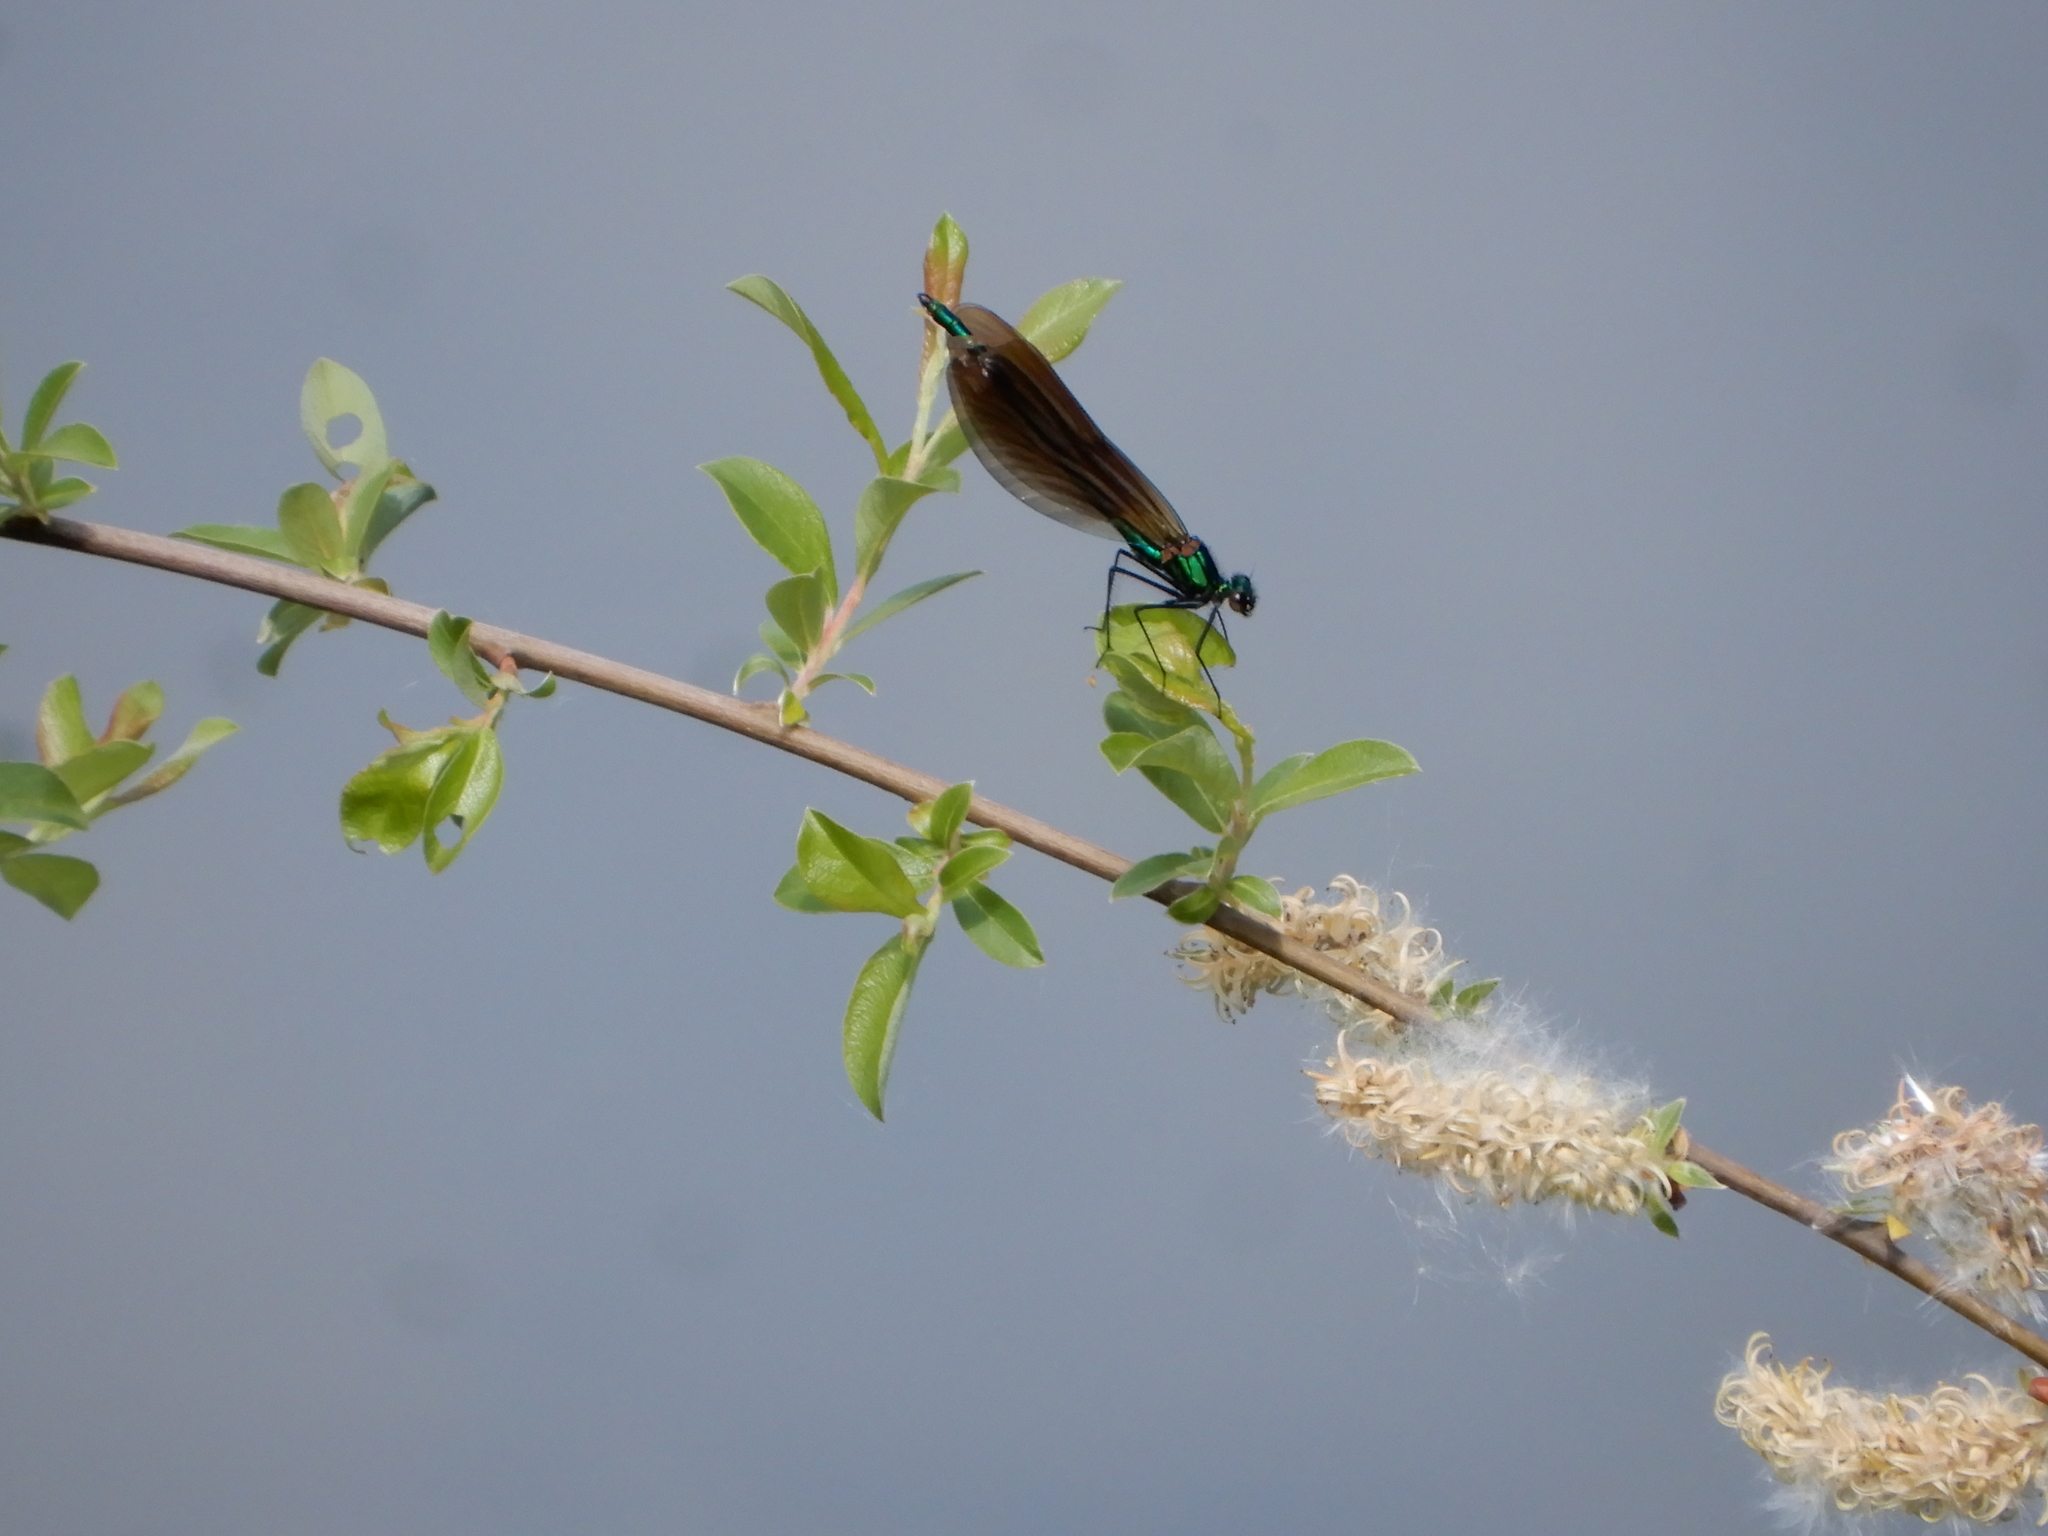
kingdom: Animalia
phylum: Arthropoda
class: Insecta
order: Odonata
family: Calopterygidae
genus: Calopteryx
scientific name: Calopteryx virgo
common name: Beautiful demoiselle
